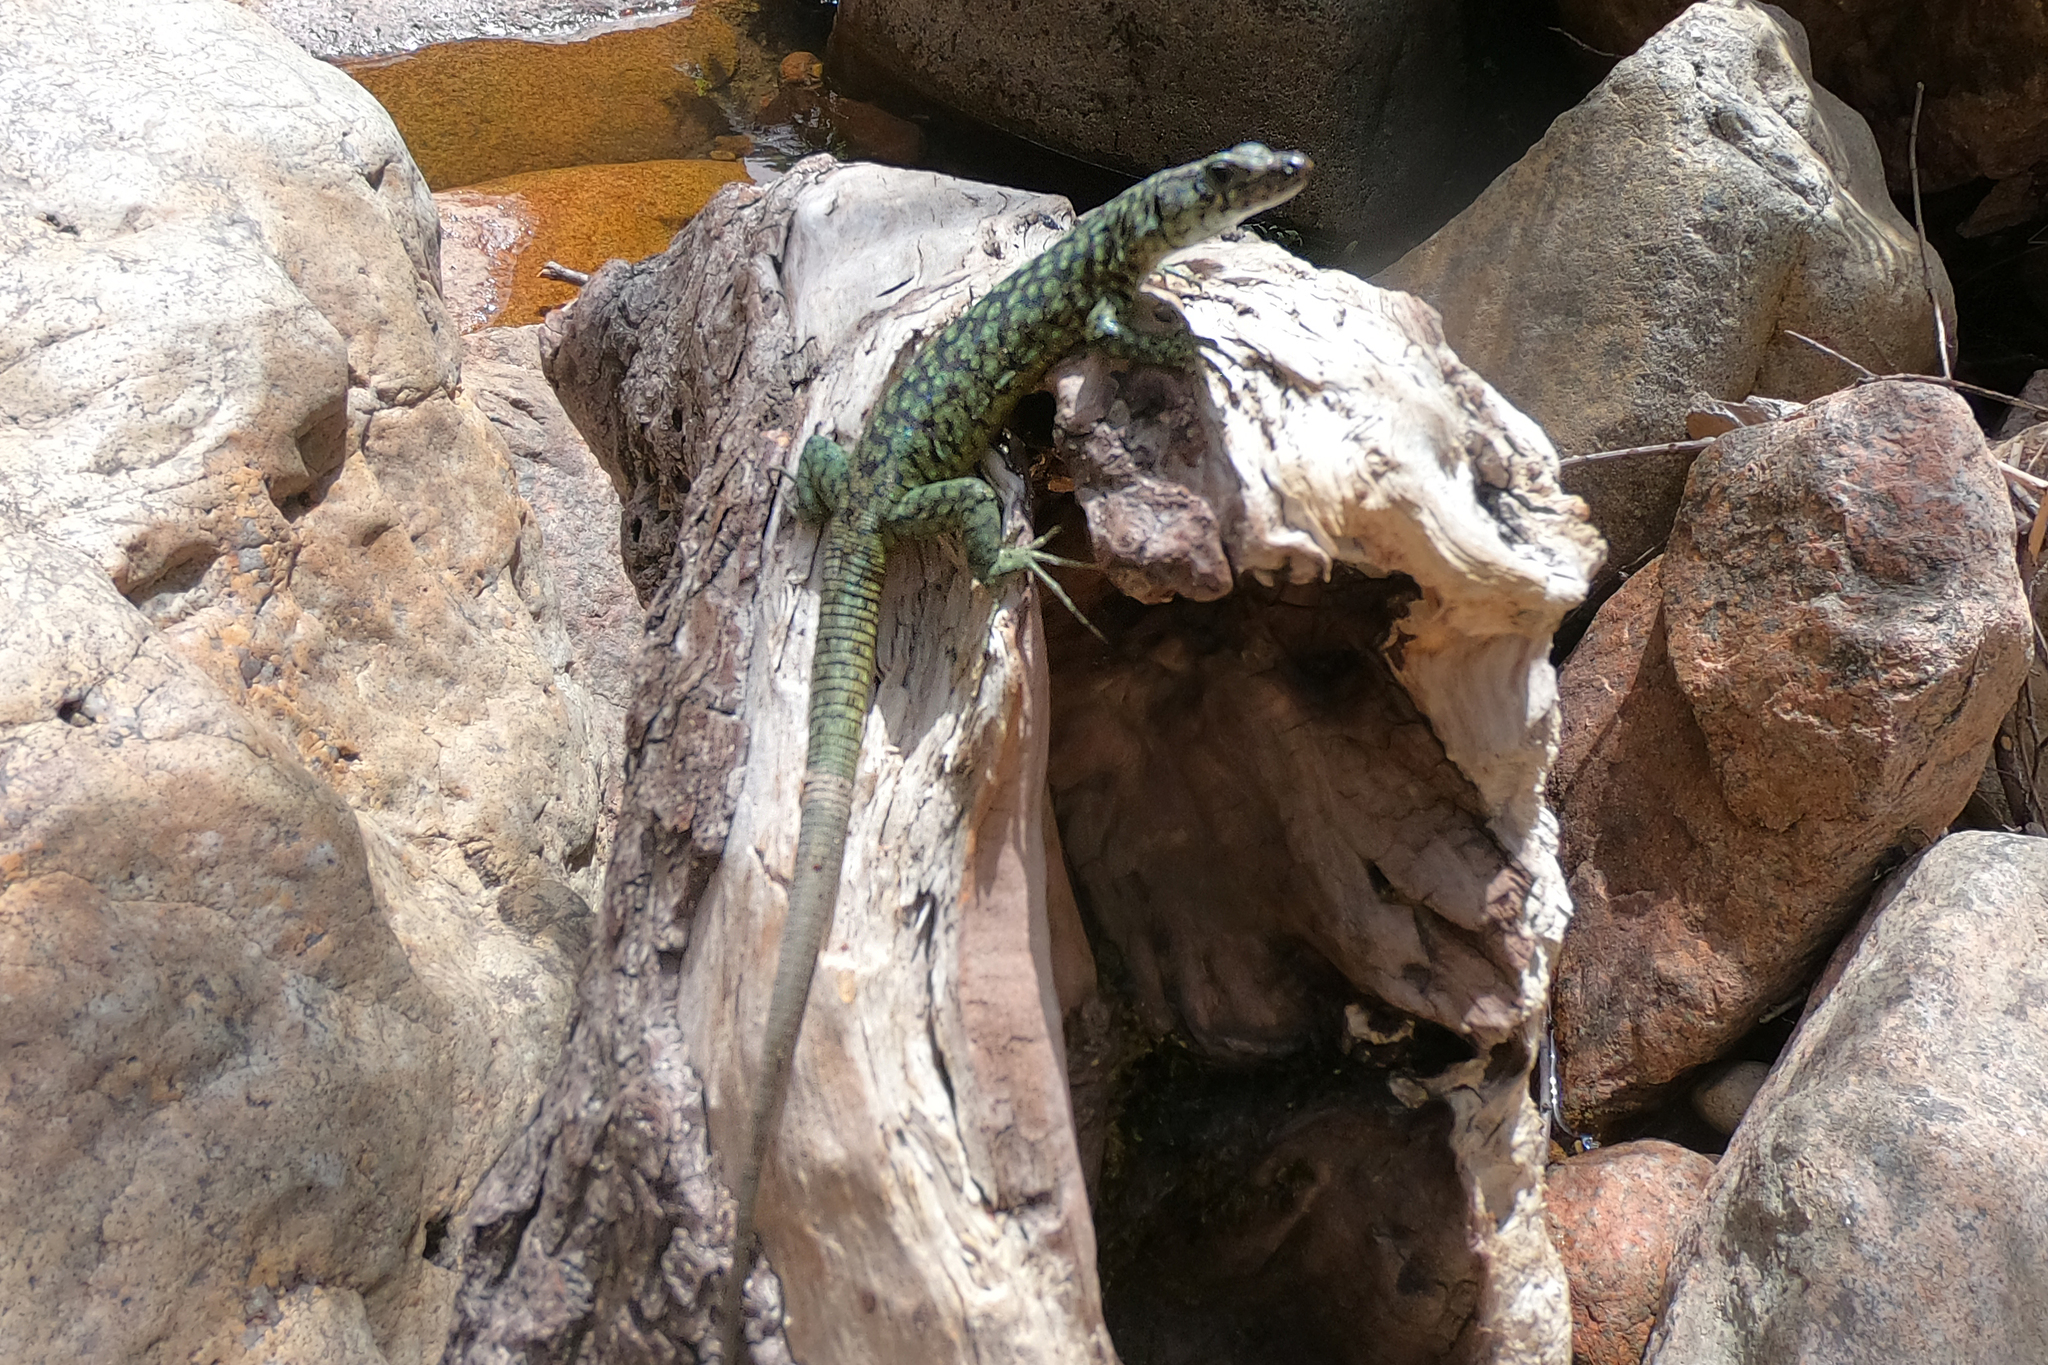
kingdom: Animalia
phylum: Chordata
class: Squamata
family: Lacertidae
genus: Archaeolacerta
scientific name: Archaeolacerta bedriagae
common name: Bedriaga's rock lizard
